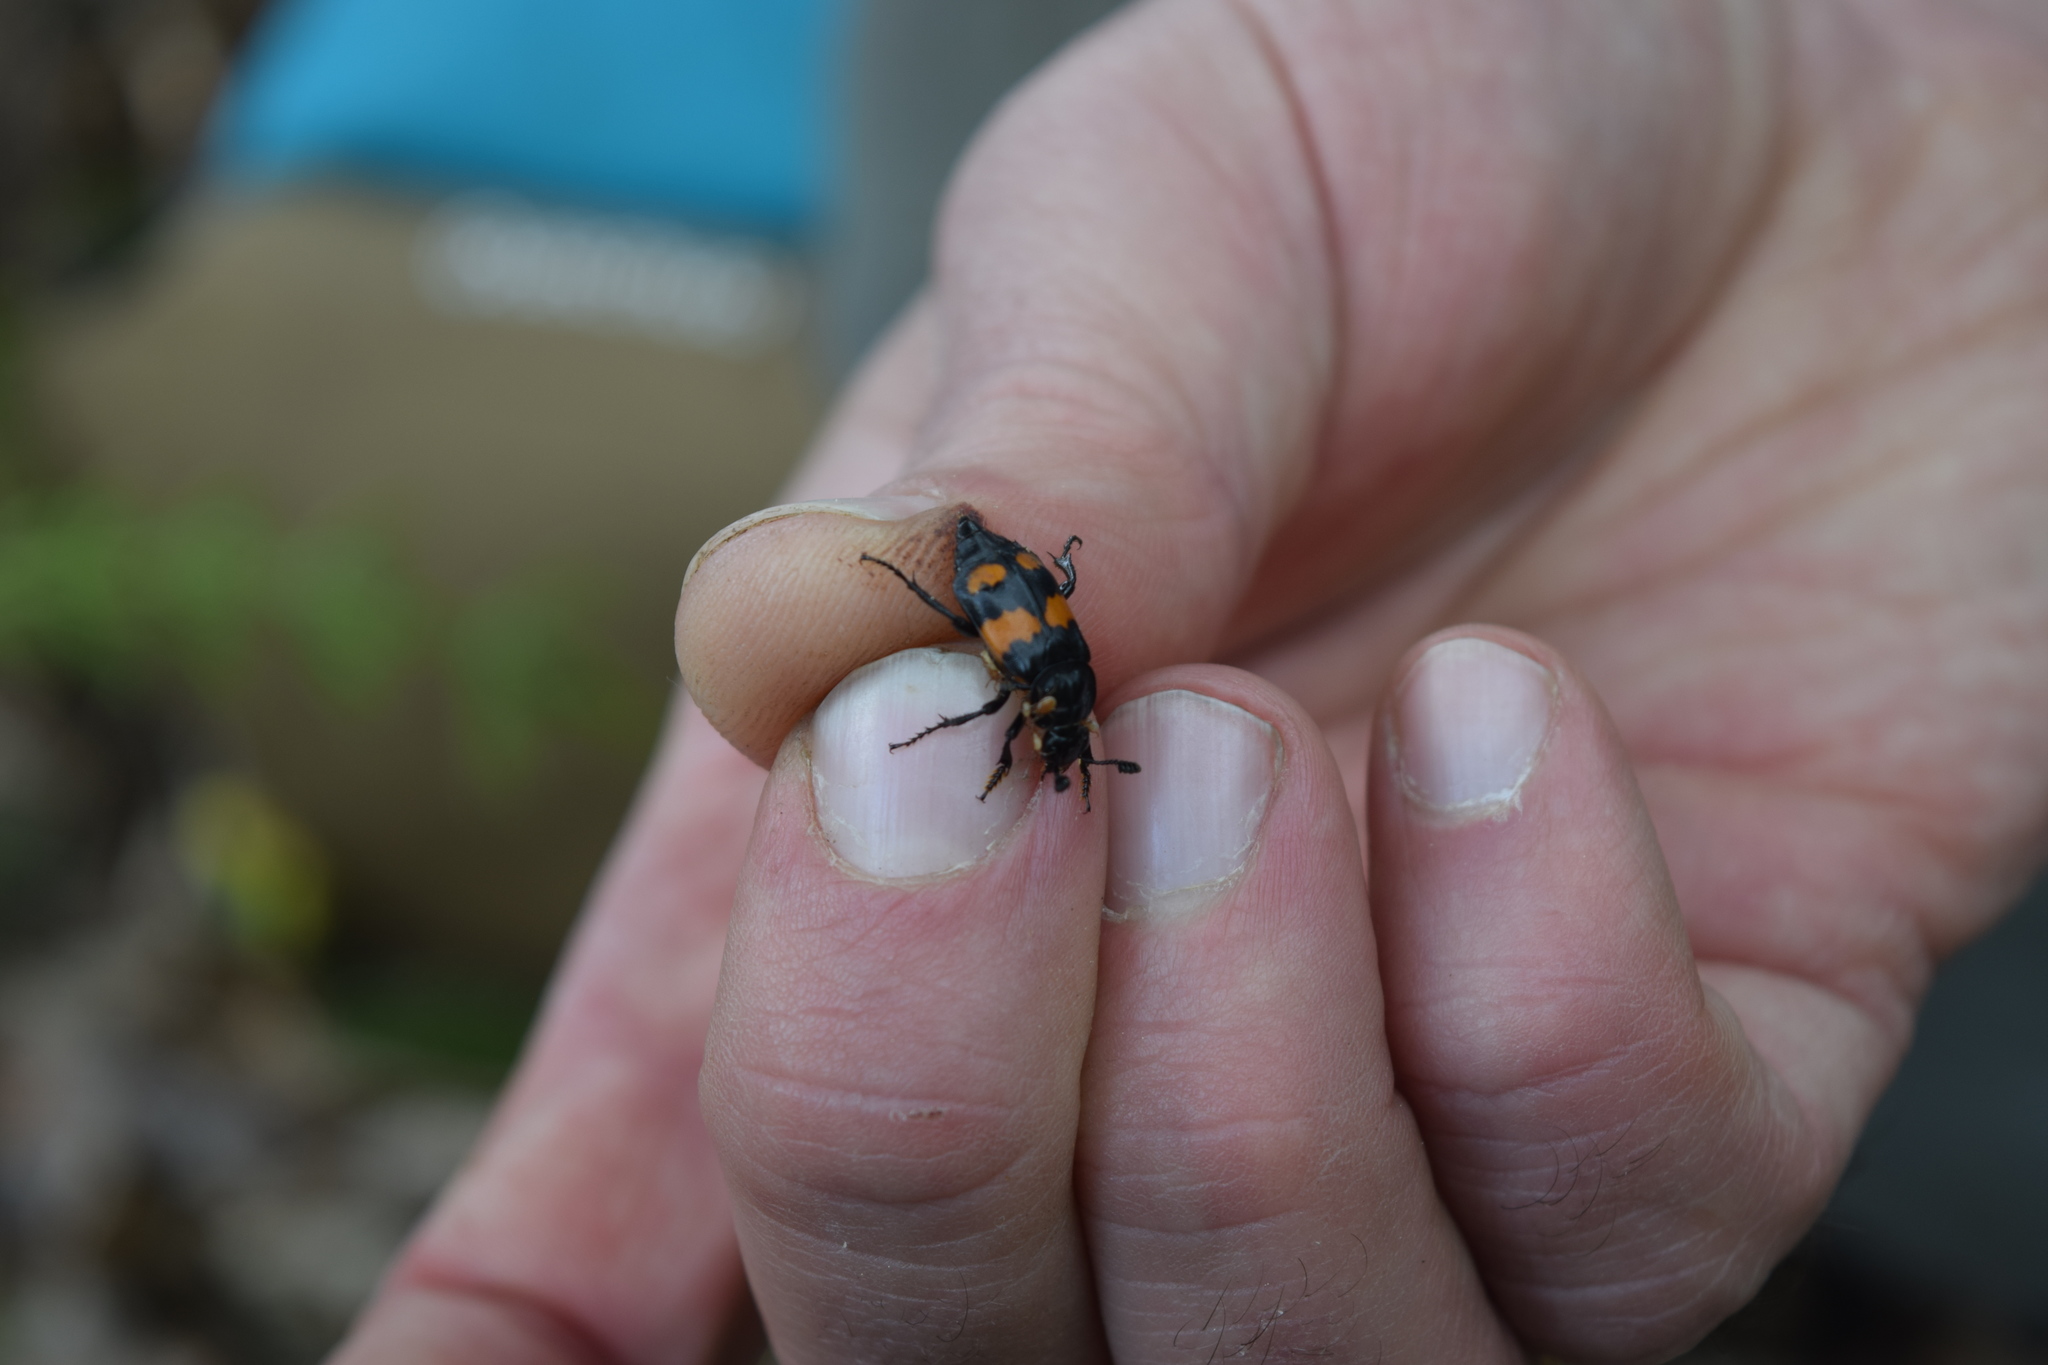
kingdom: Animalia
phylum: Arthropoda
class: Insecta
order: Coleoptera
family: Staphylinidae
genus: Nicrophorus
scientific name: Nicrophorus vespilloides
